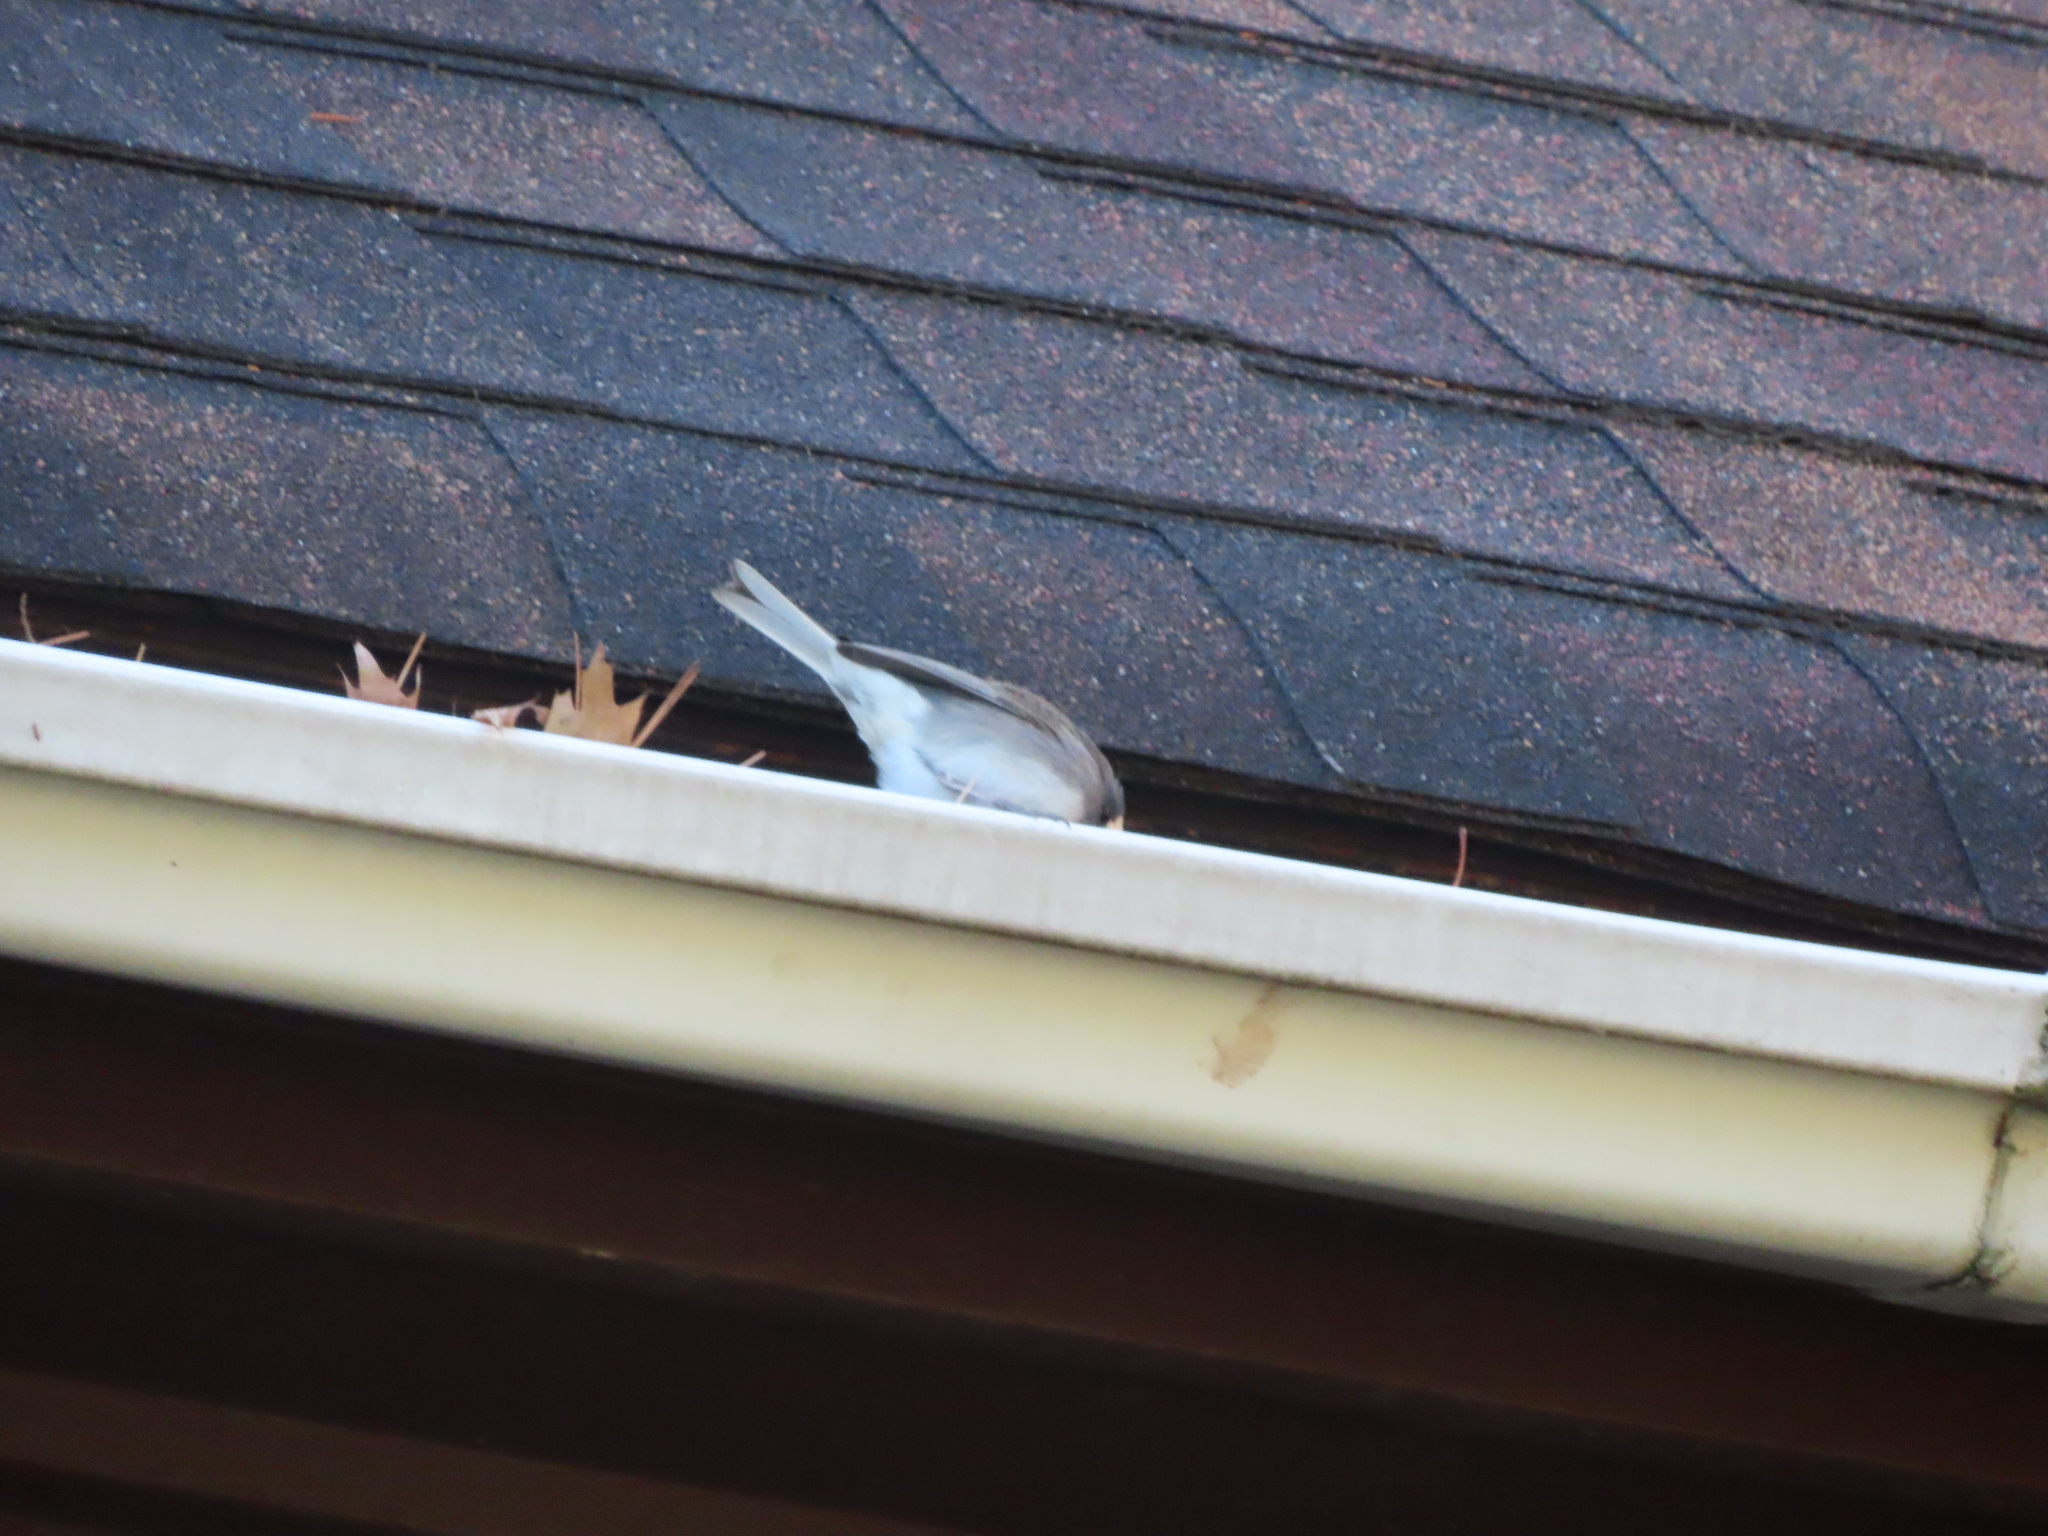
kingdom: Animalia
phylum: Chordata
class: Aves
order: Passeriformes
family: Passerellidae
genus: Junco
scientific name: Junco hyemalis
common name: Dark-eyed junco
